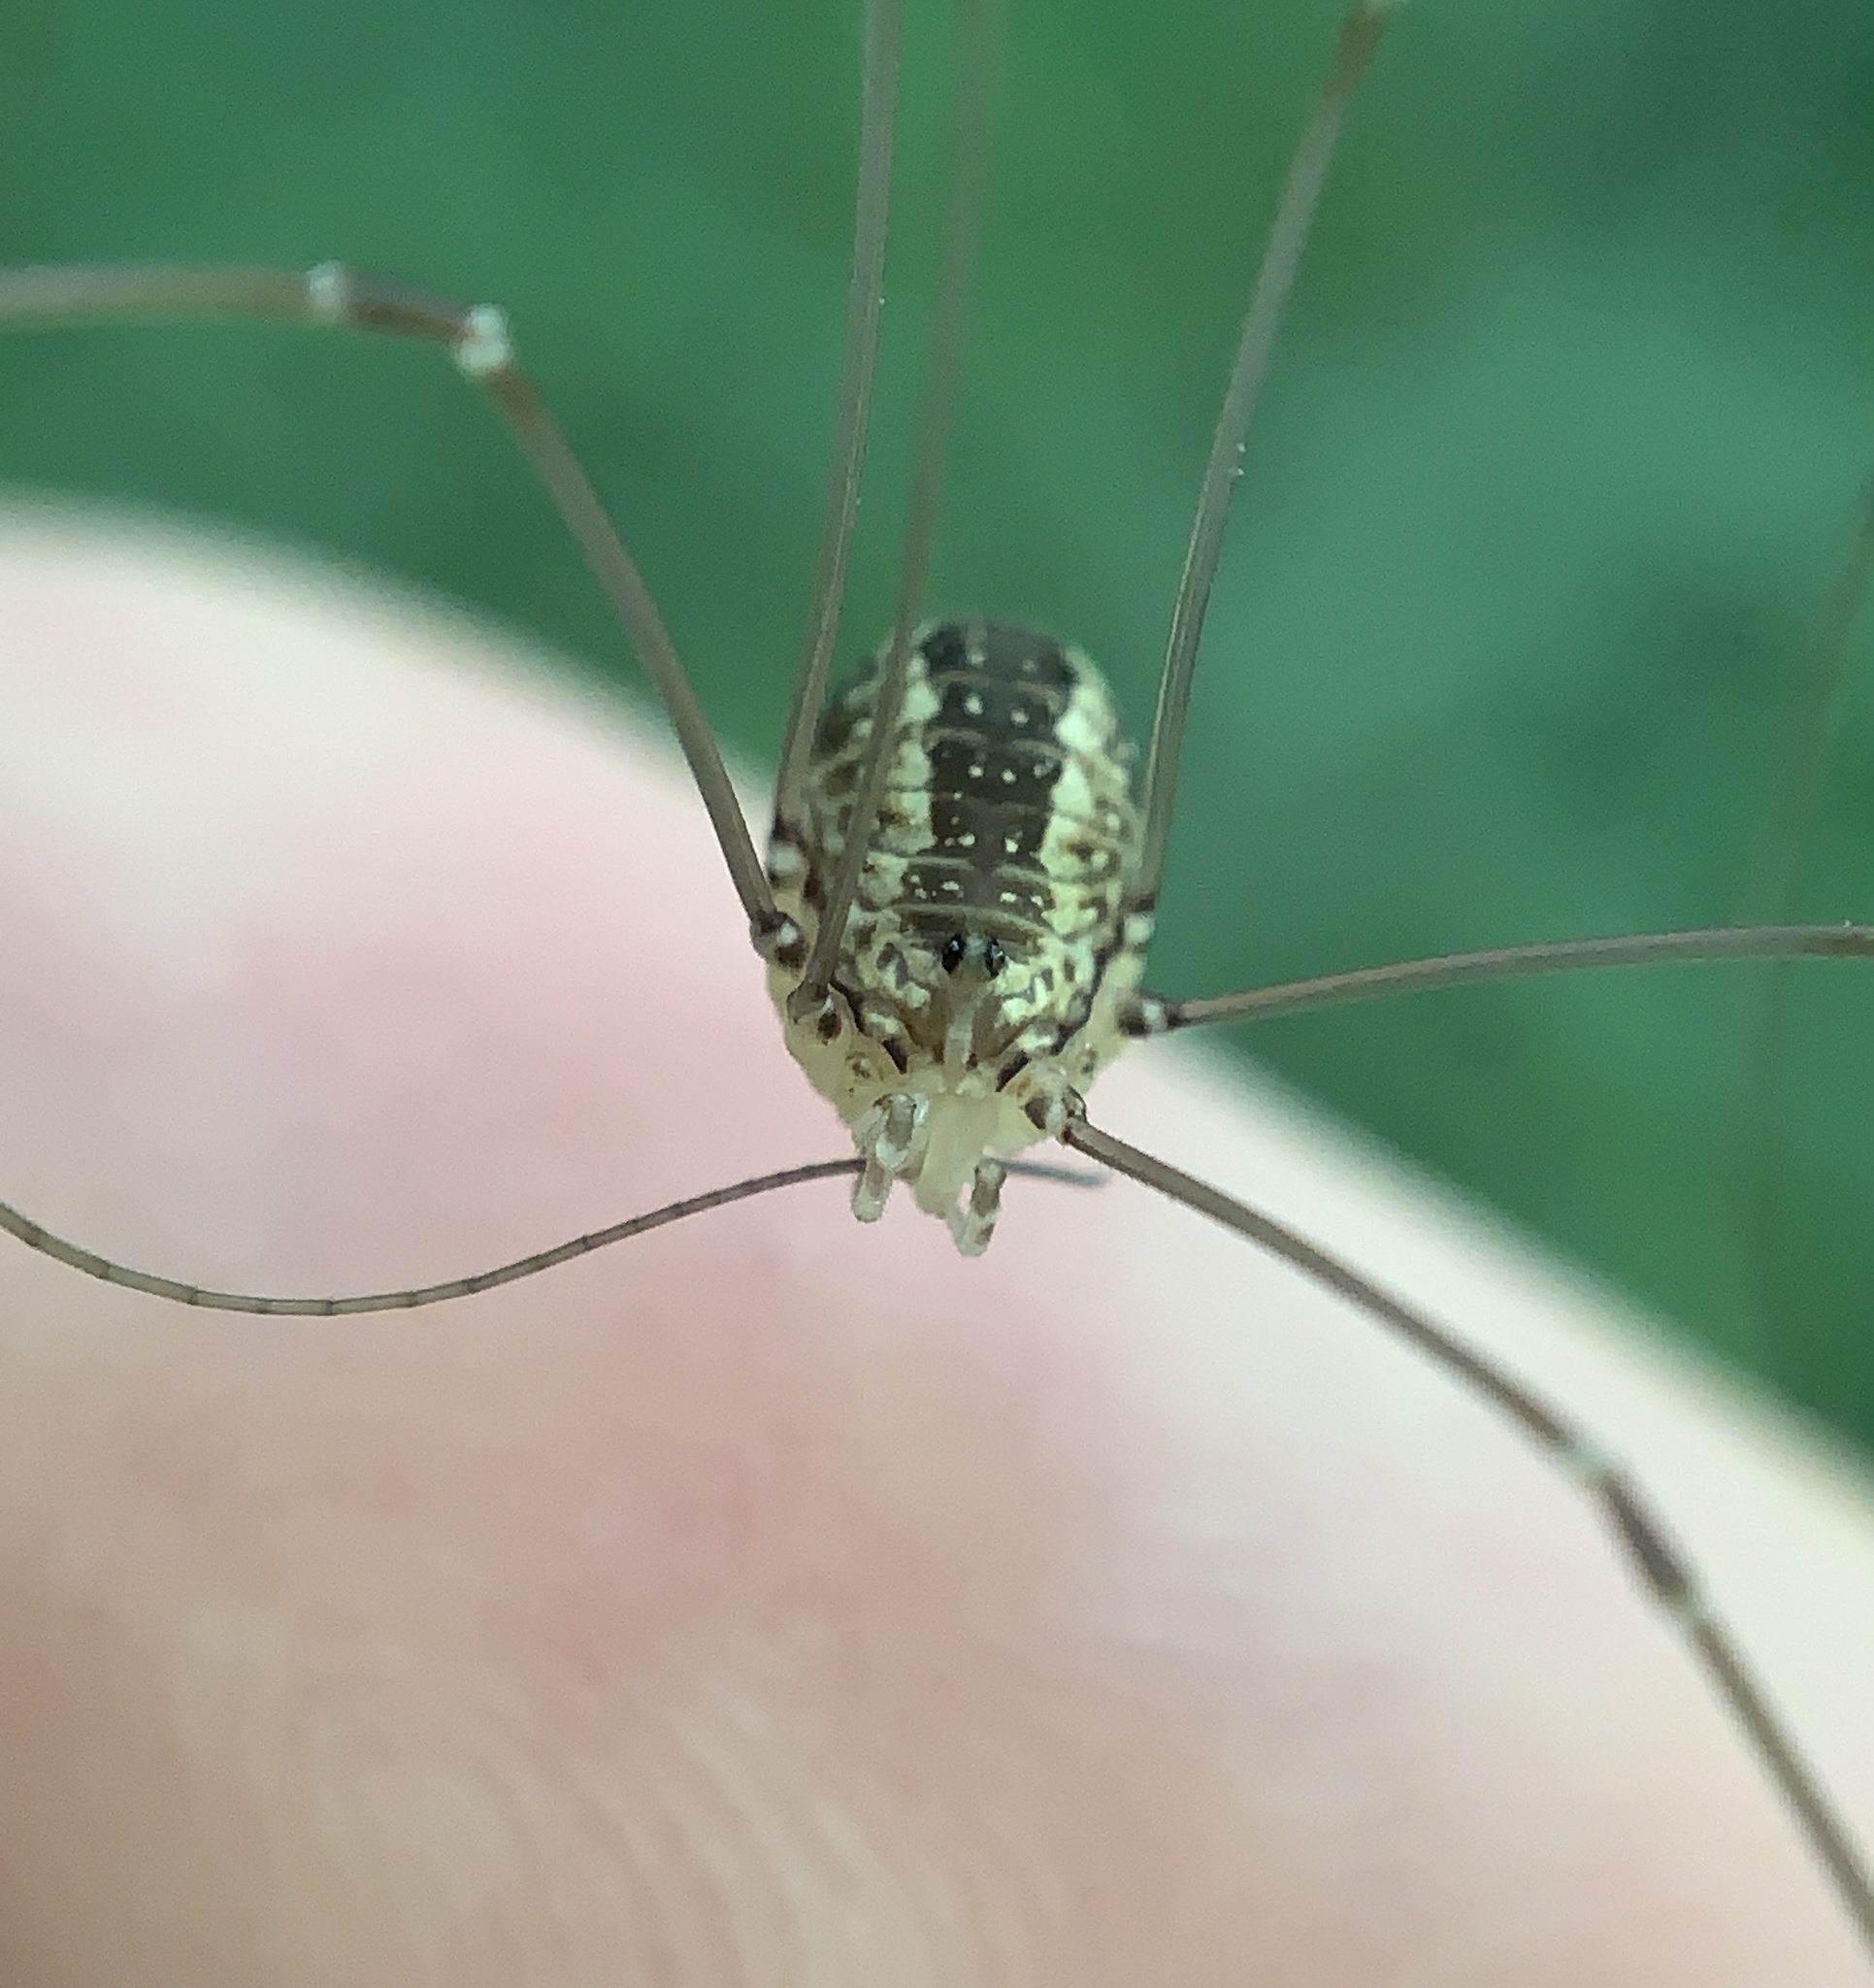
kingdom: Animalia
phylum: Arthropoda
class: Arachnida
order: Opiliones
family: Sclerosomatidae
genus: Leiobunum
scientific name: Leiobunum rotundum
